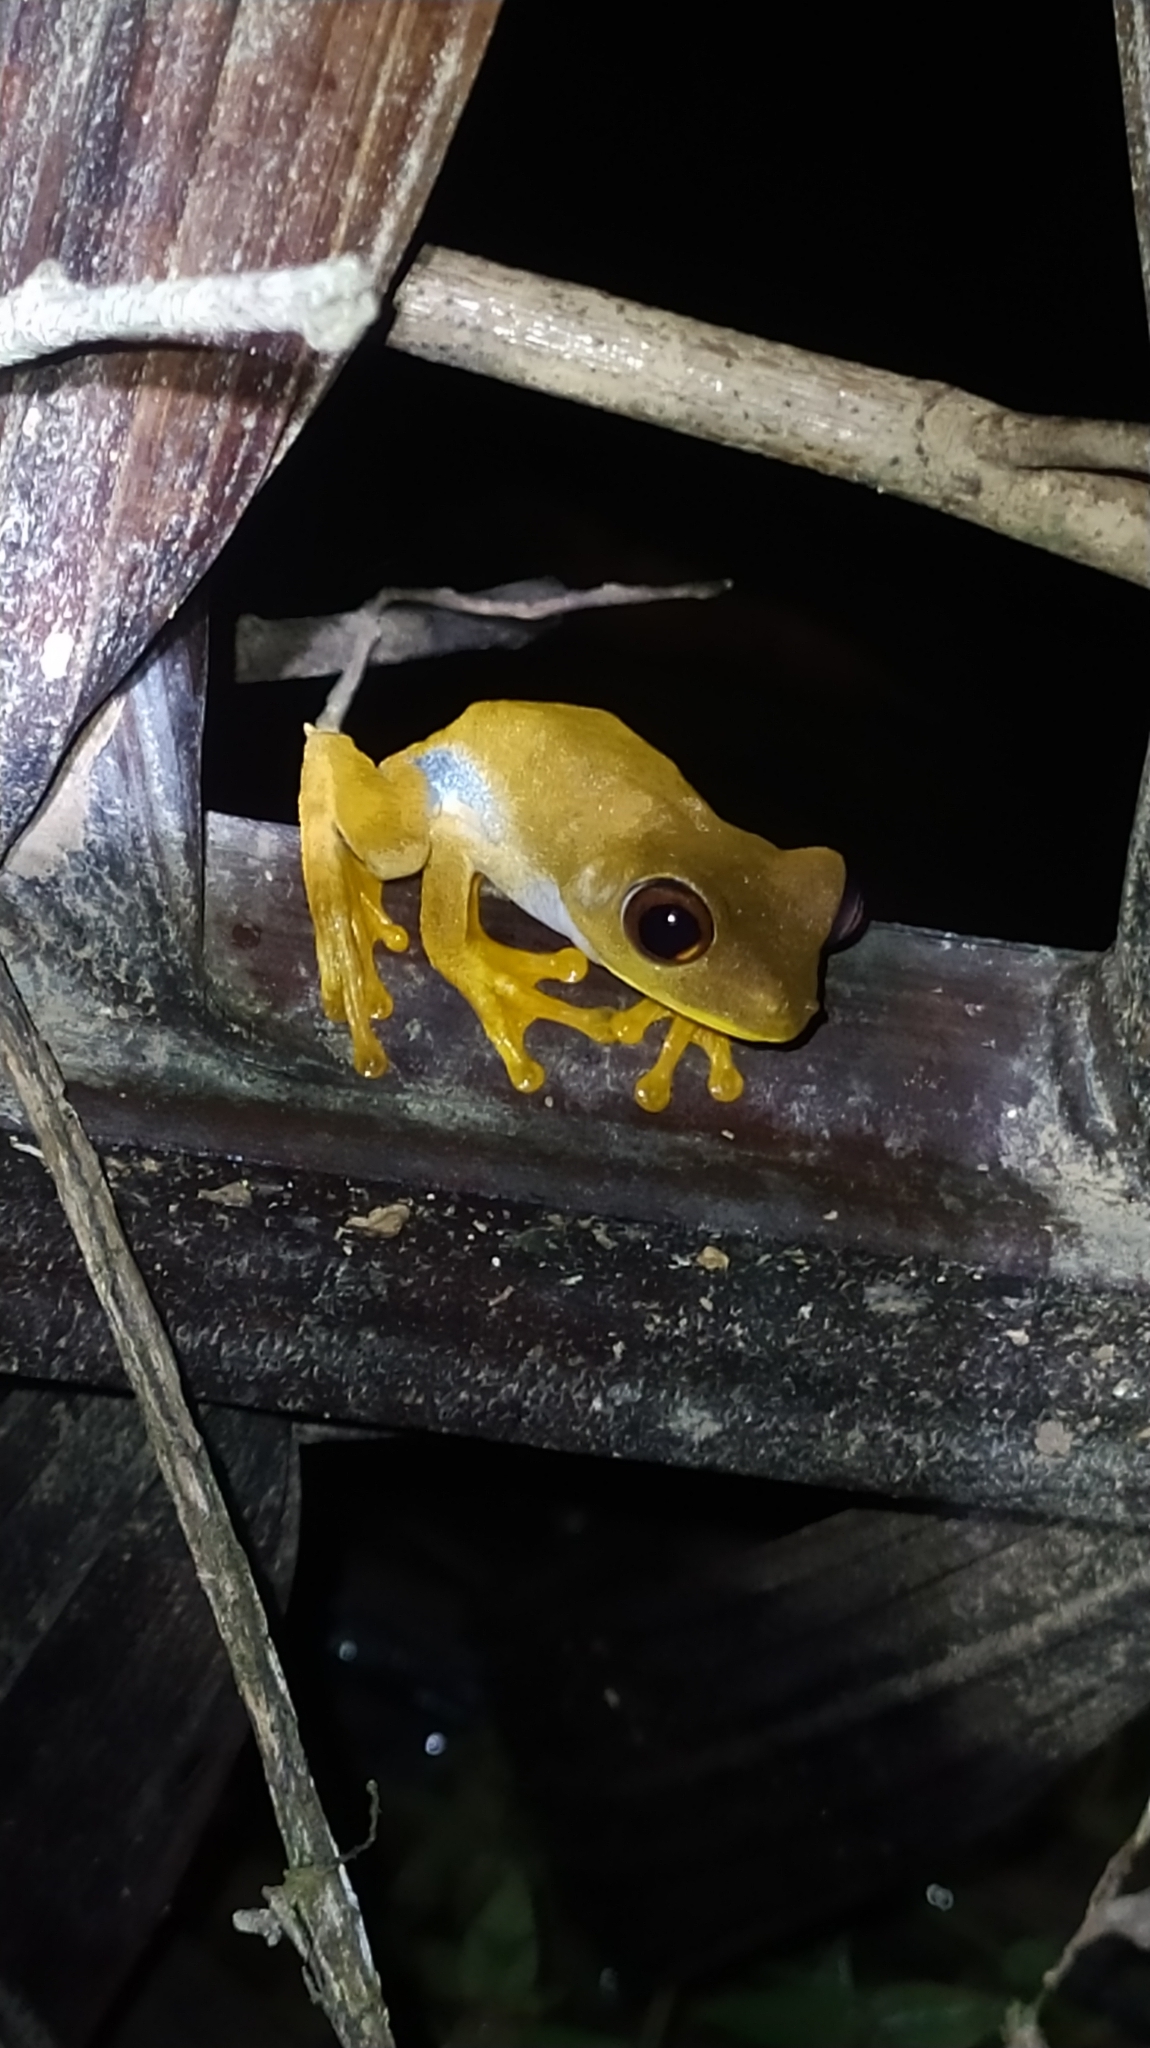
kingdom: Animalia
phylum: Chordata
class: Amphibia
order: Anura
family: Hylidae
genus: Boana
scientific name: Boana semilineata
